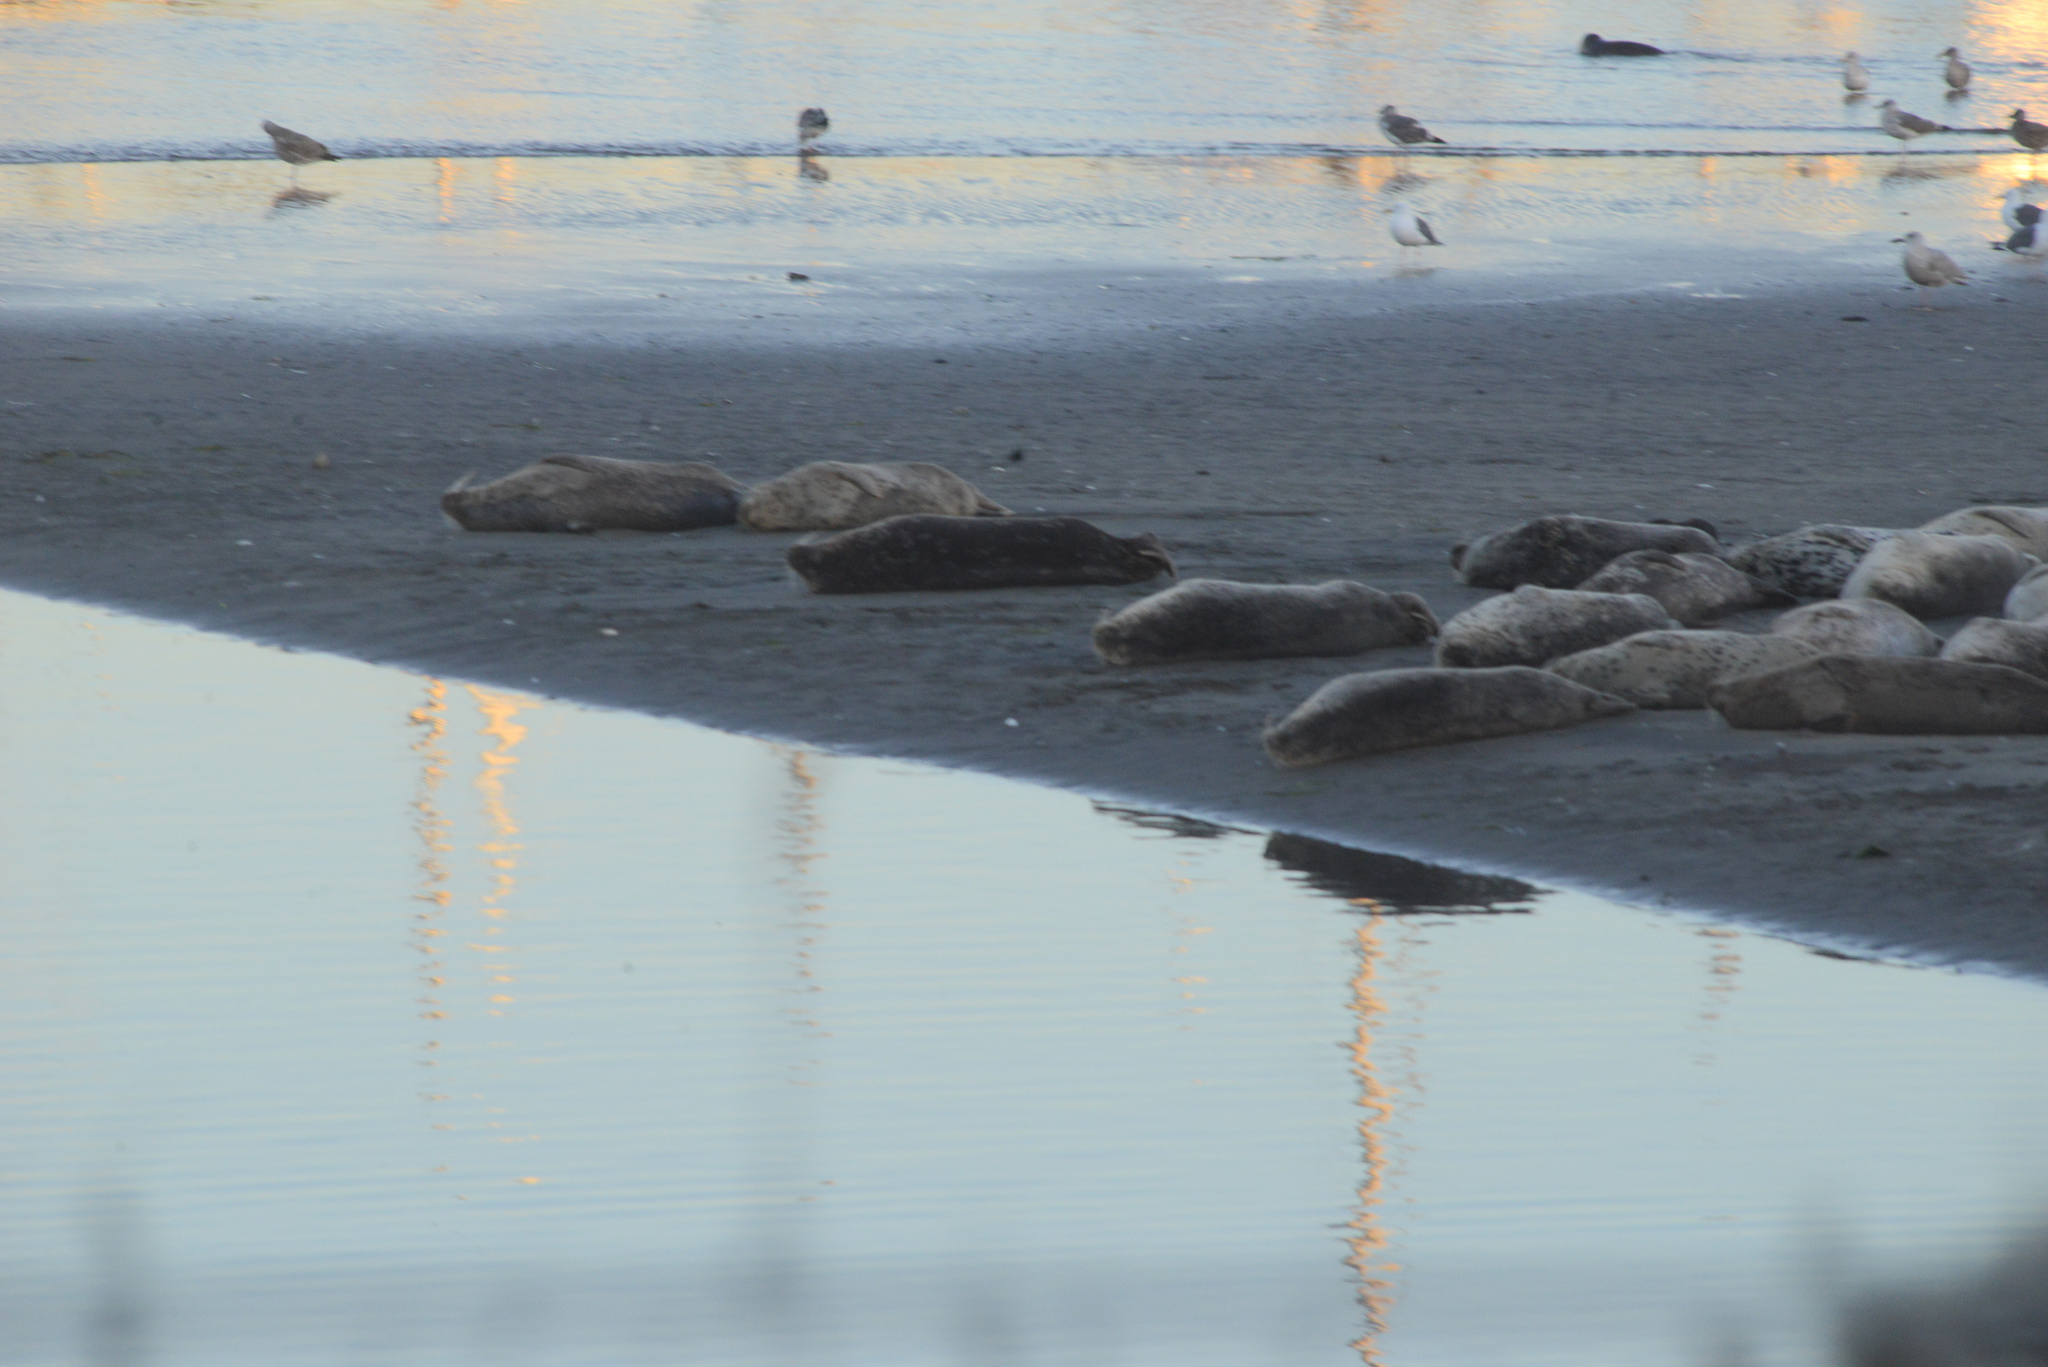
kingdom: Animalia
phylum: Chordata
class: Mammalia
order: Carnivora
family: Phocidae
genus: Phoca
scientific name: Phoca vitulina
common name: Harbor seal
